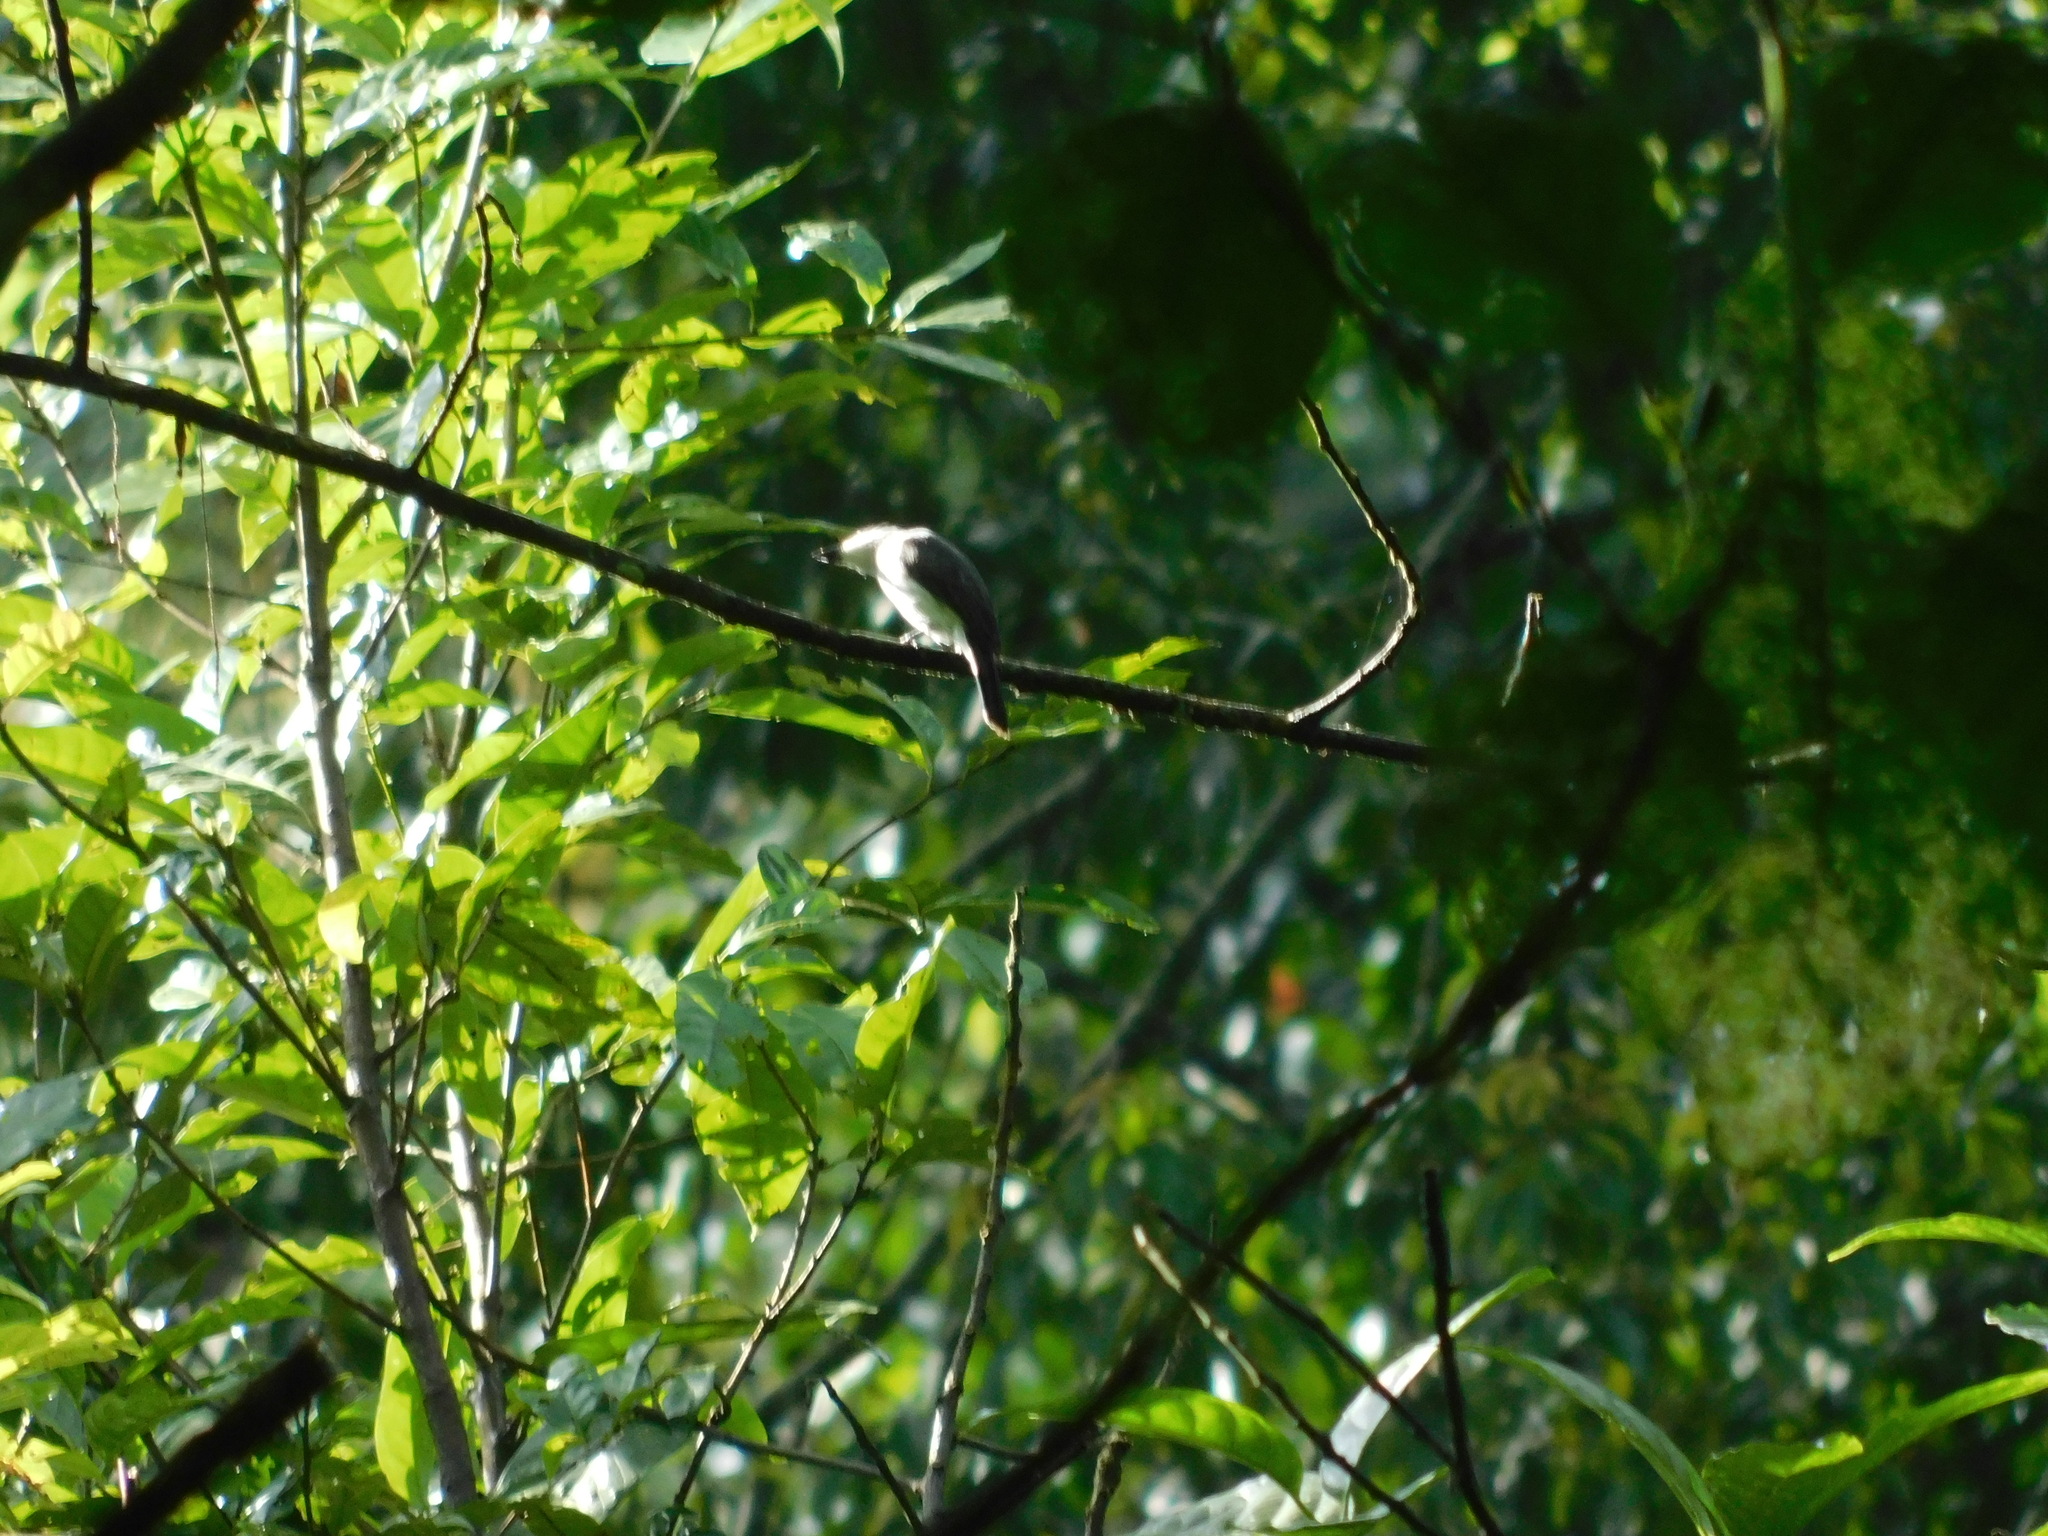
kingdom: Animalia
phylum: Chordata
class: Aves
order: Passeriformes
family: Tephrodornithidae
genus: Hemipus
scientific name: Hemipus hirundinaceus
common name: Black-winged flycatcher-shrike
